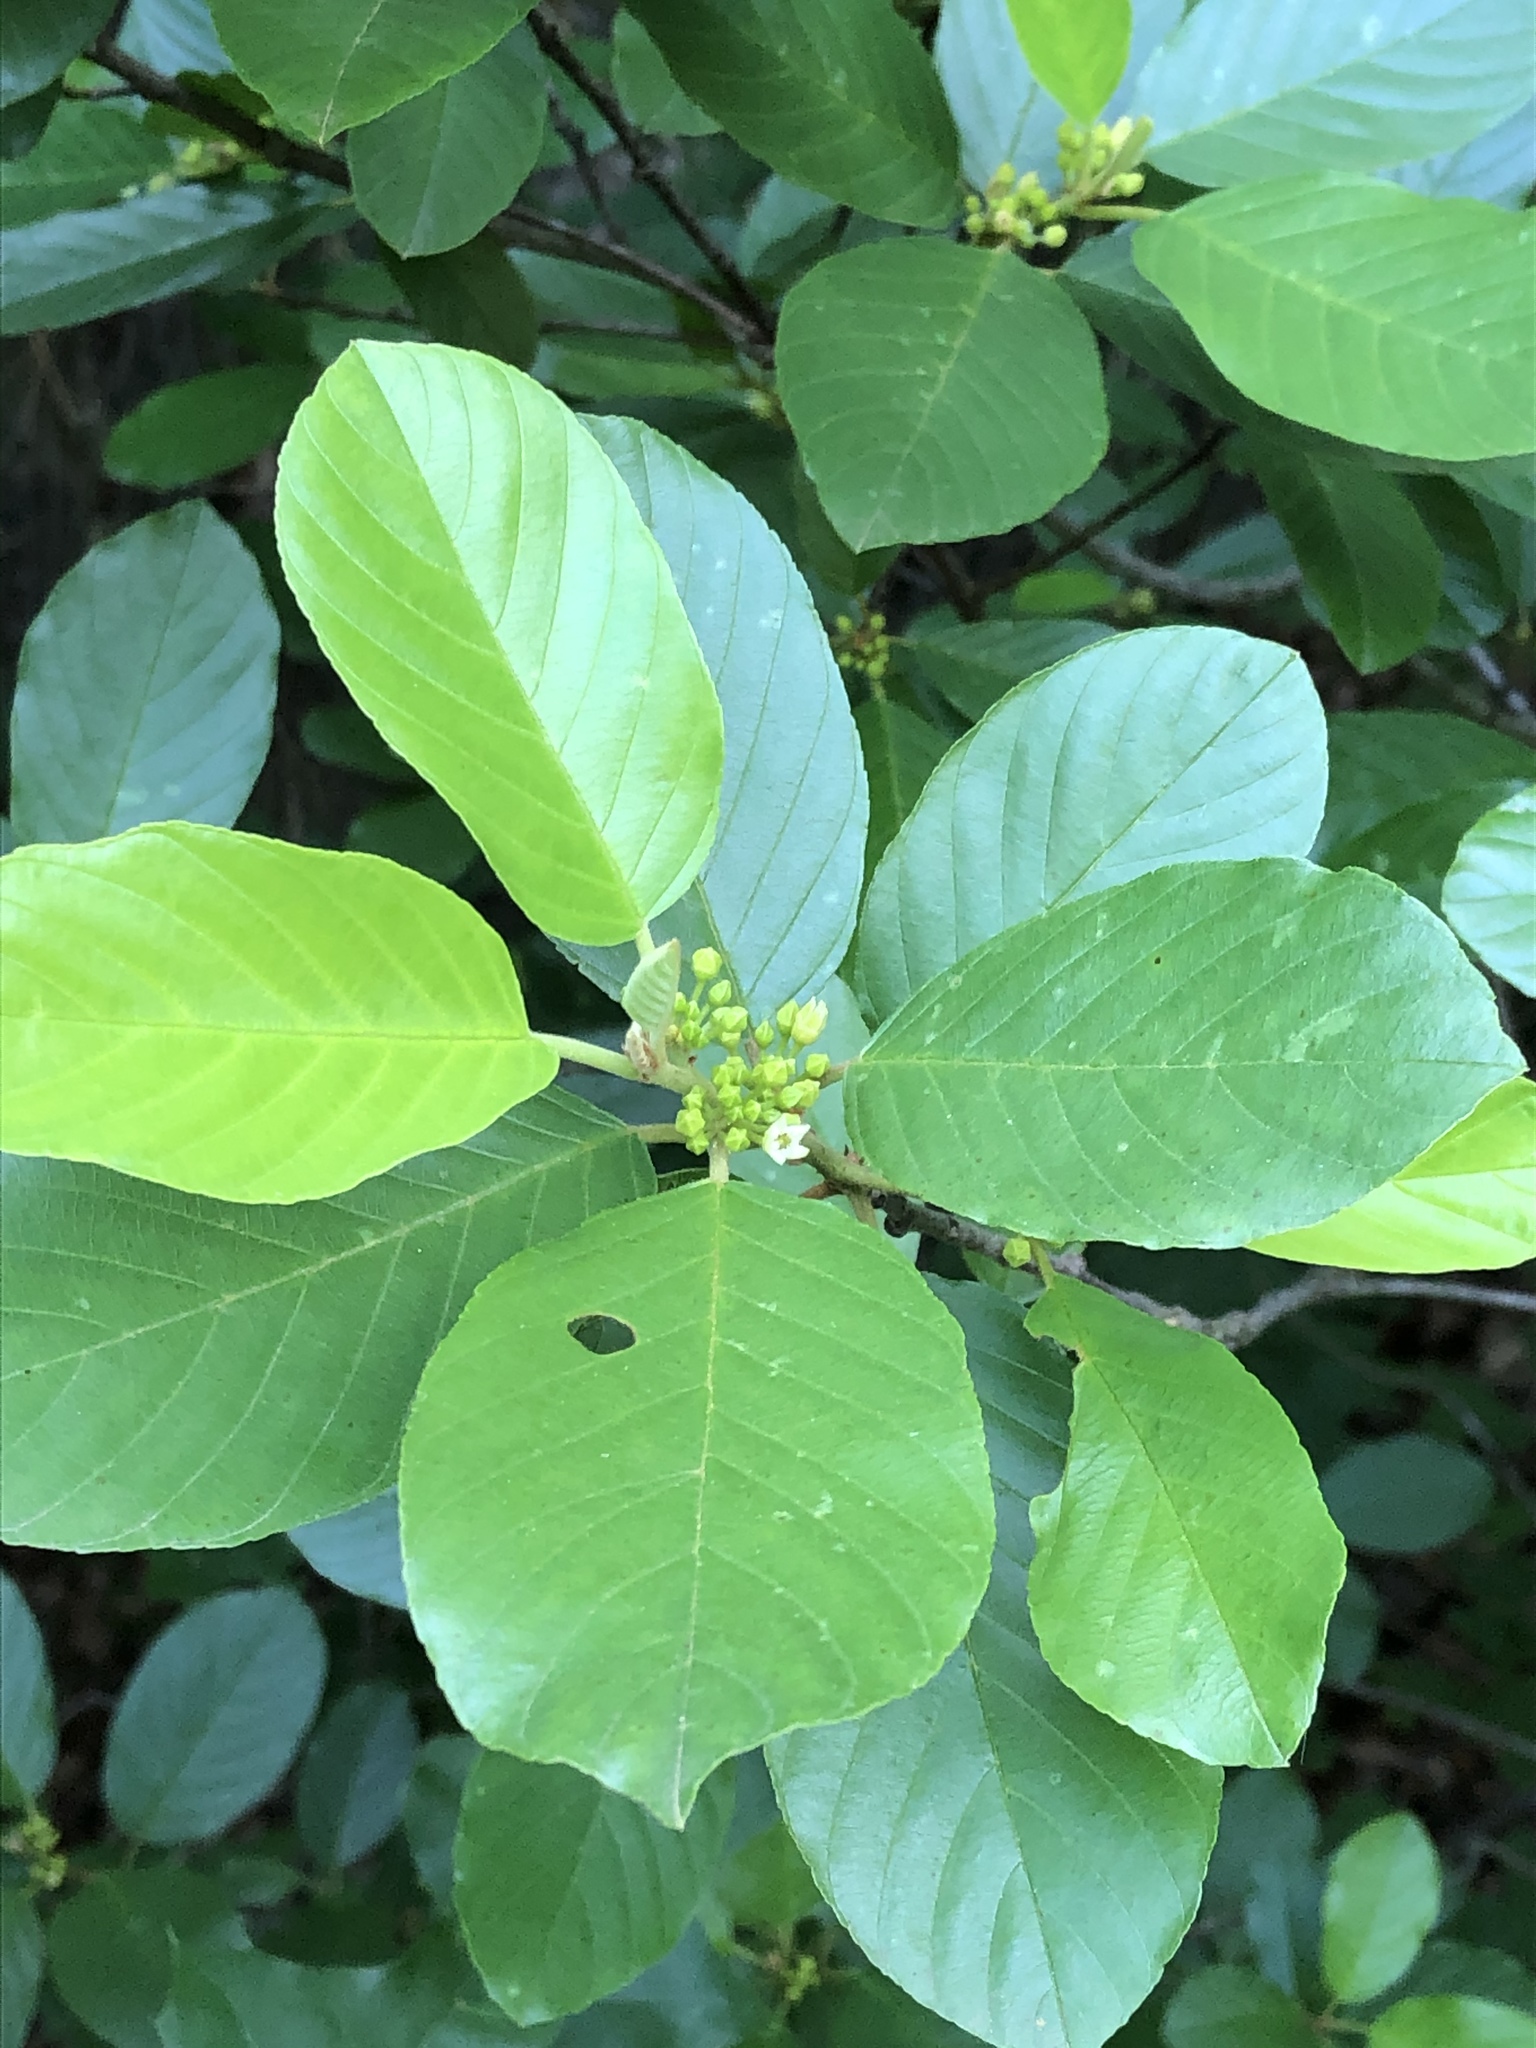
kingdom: Plantae
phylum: Tracheophyta
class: Magnoliopsida
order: Rosales
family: Rhamnaceae
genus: Frangula
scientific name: Frangula caroliniana
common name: Carolina buckthorn
